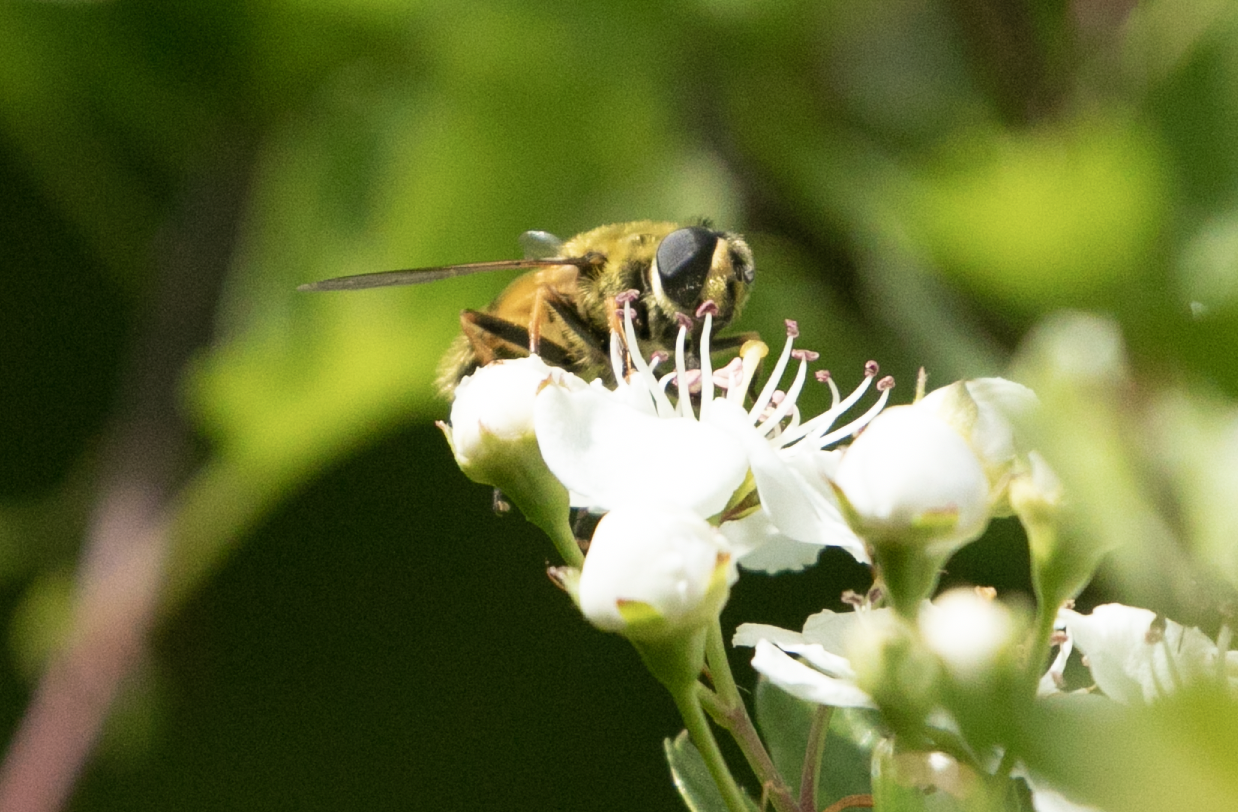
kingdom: Animalia
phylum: Arthropoda
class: Insecta
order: Diptera
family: Syrphidae
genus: Myathropa
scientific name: Myathropa florea
